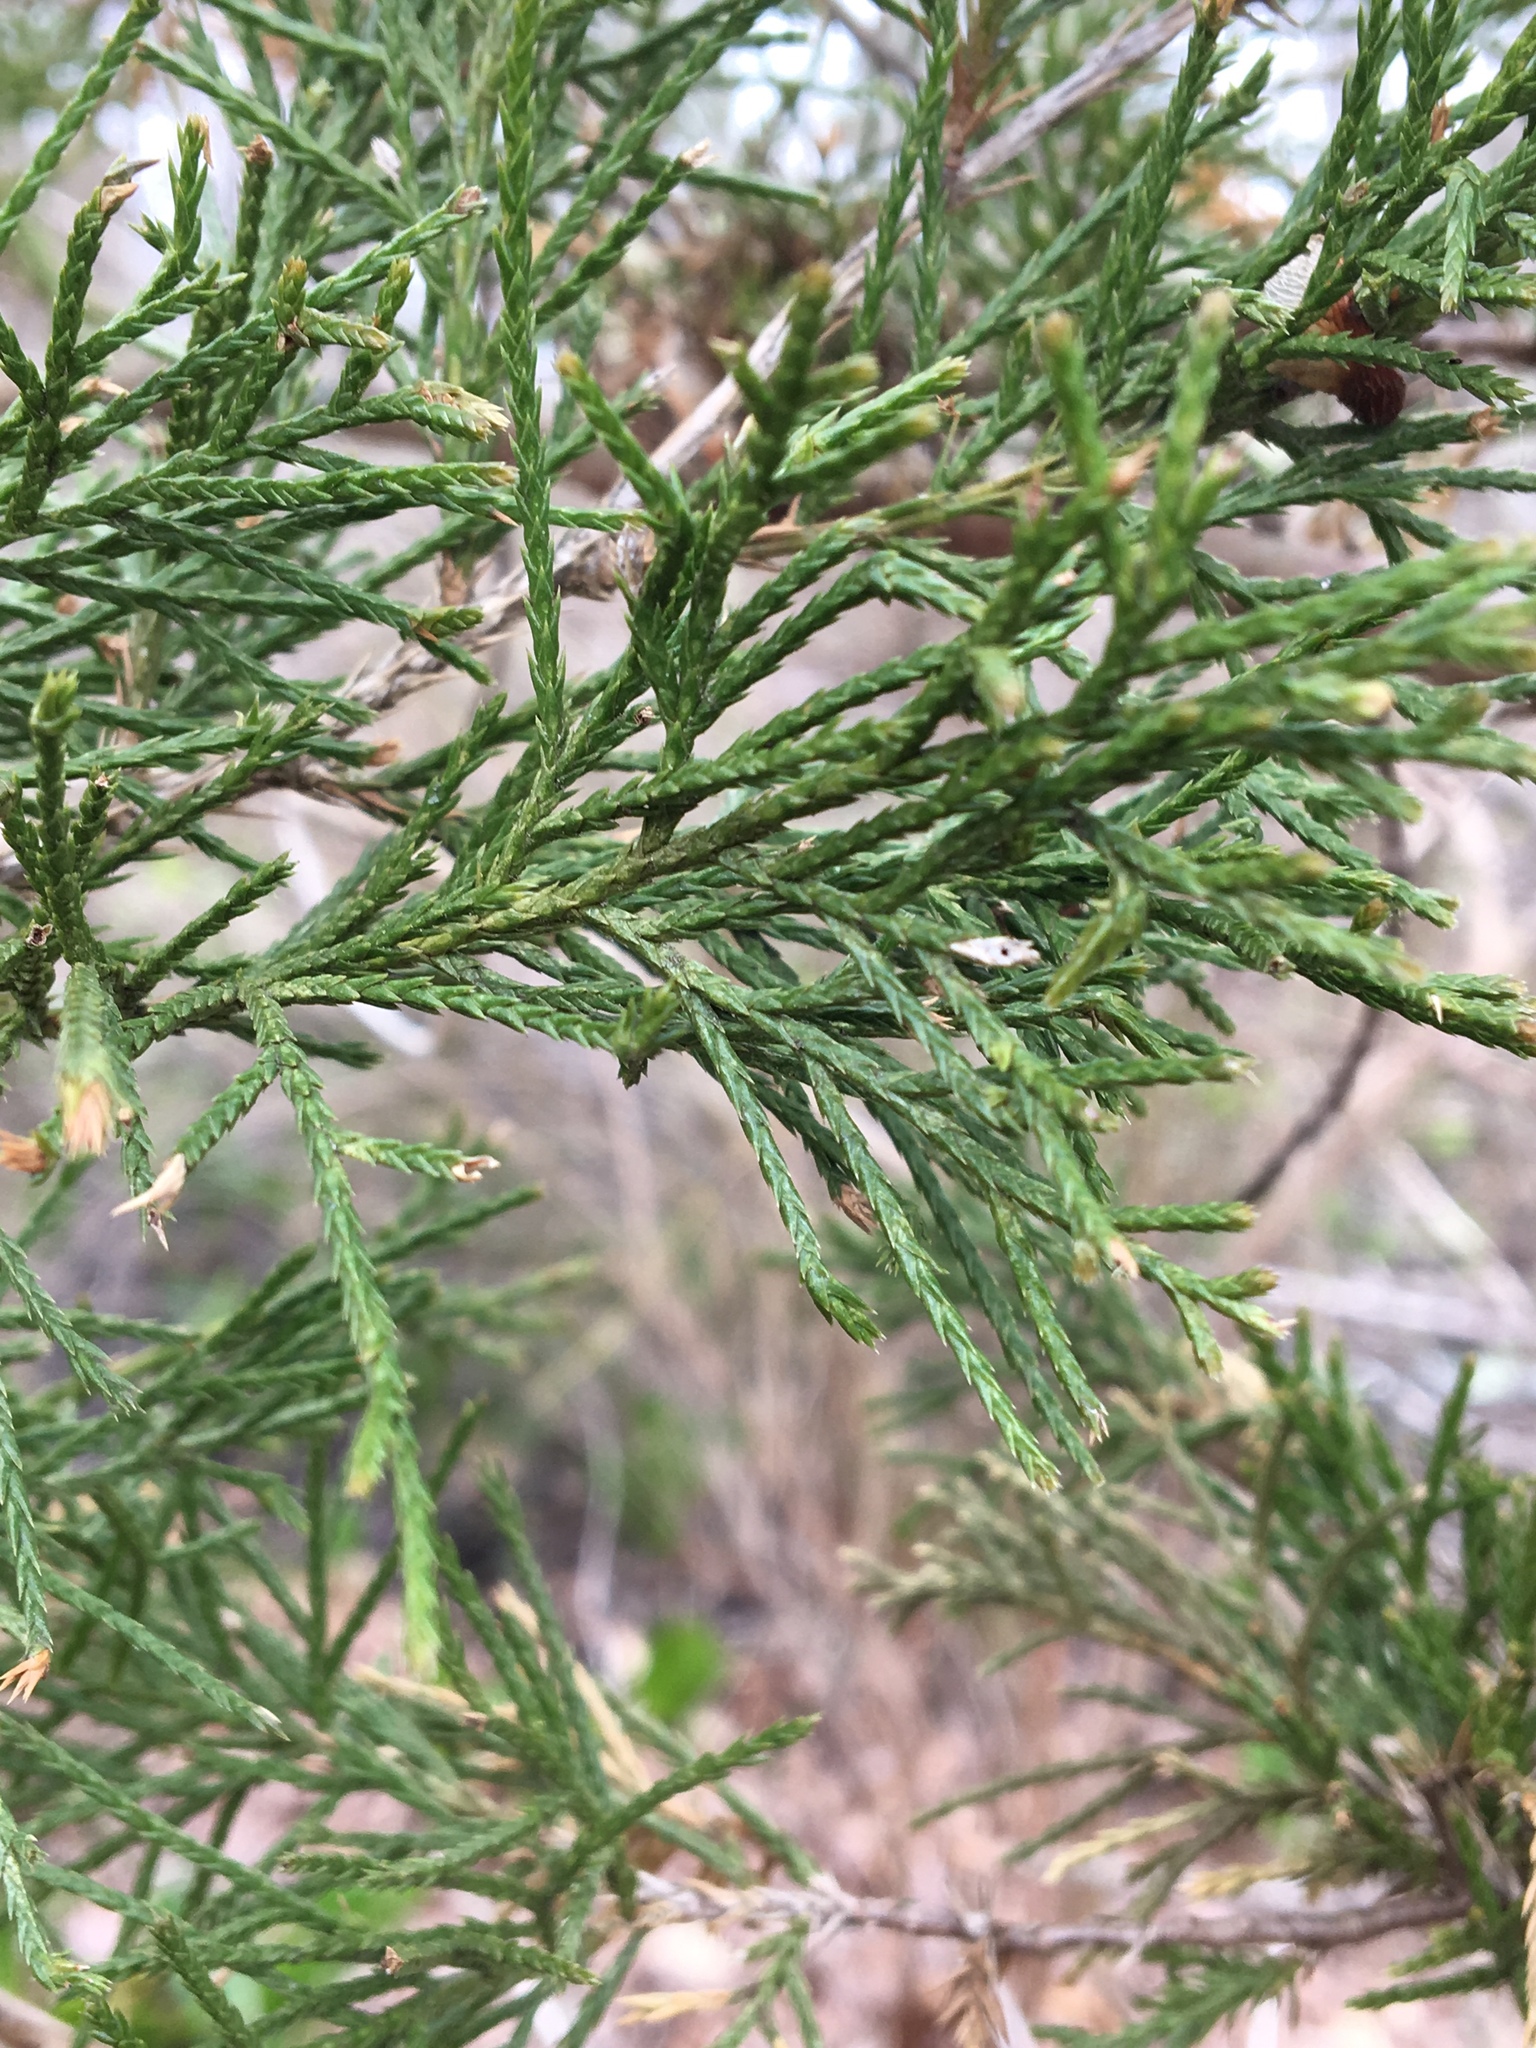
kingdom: Plantae
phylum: Tracheophyta
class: Pinopsida
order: Pinales
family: Cupressaceae
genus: Juniperus
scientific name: Juniperus virginiana
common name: Red juniper
